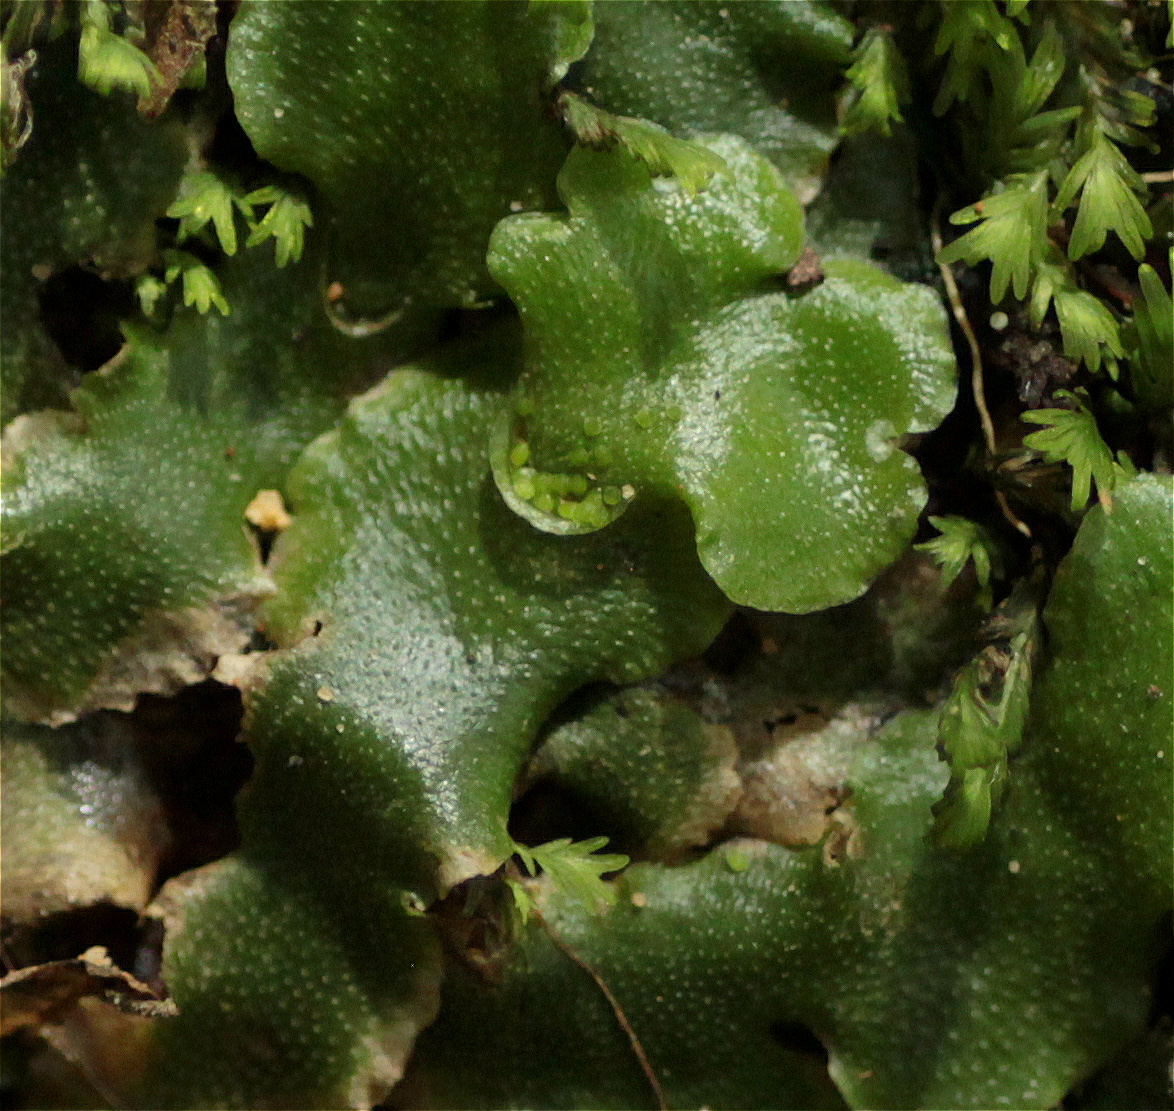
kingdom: Plantae
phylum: Marchantiophyta
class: Marchantiopsida
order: Lunulariales
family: Lunulariaceae
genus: Lunularia
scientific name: Lunularia cruciata
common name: Crescent-cup liverwort
